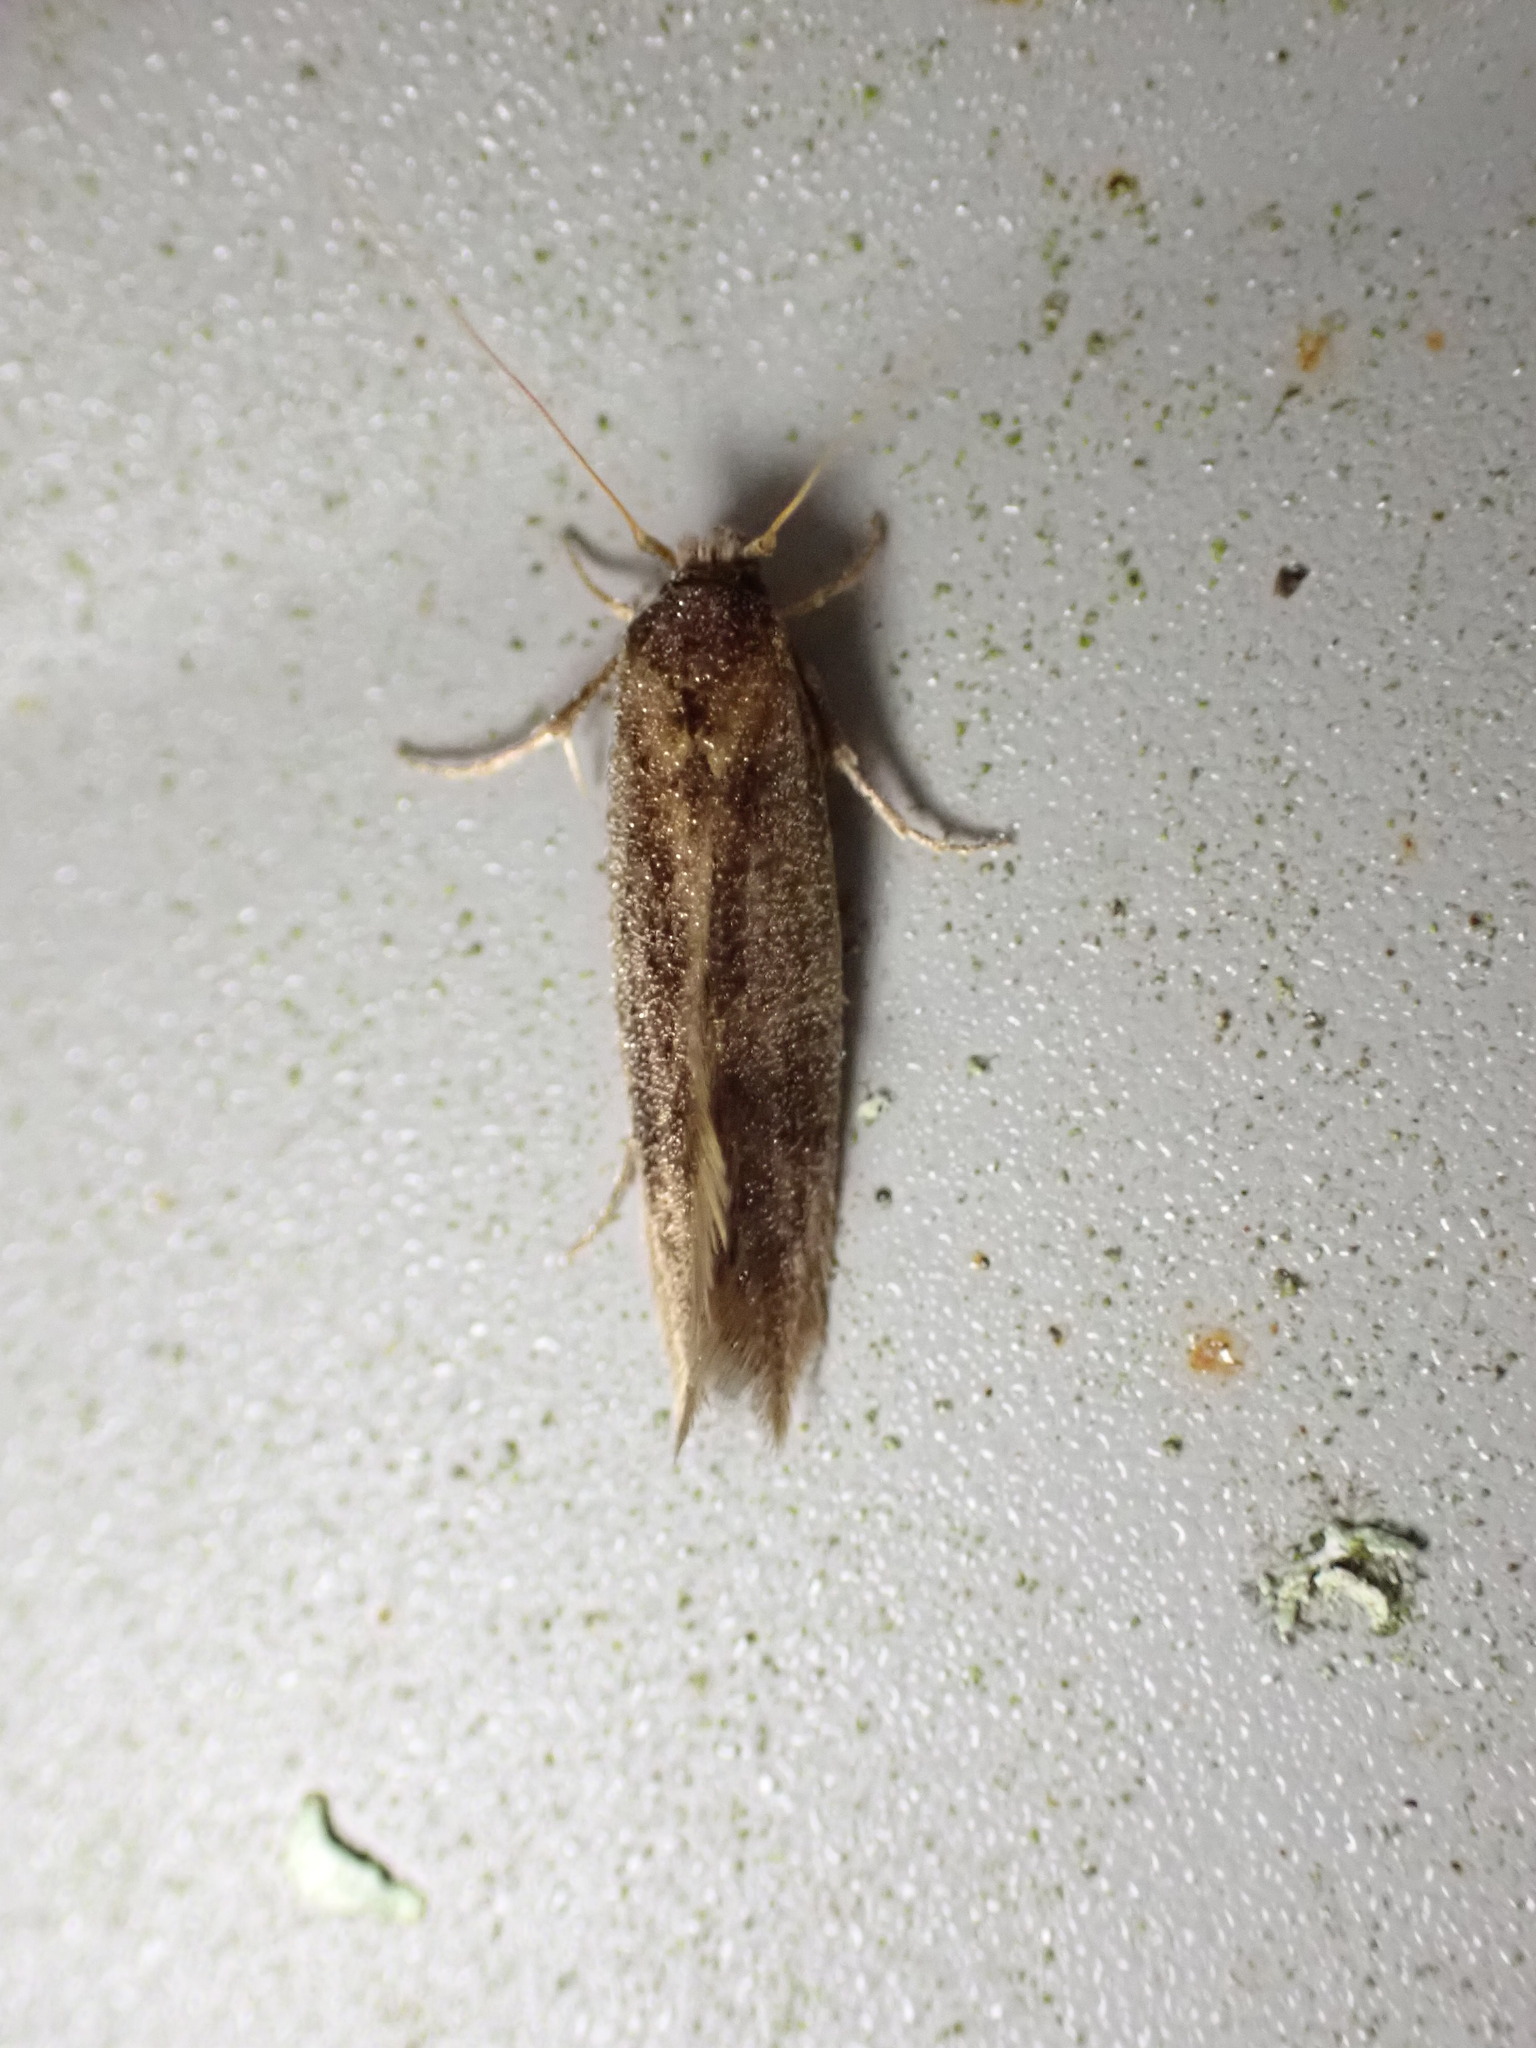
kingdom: Animalia
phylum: Arthropoda
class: Insecta
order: Lepidoptera
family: Tineidae
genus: Opogona
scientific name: Opogona omoscopa
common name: Moth
